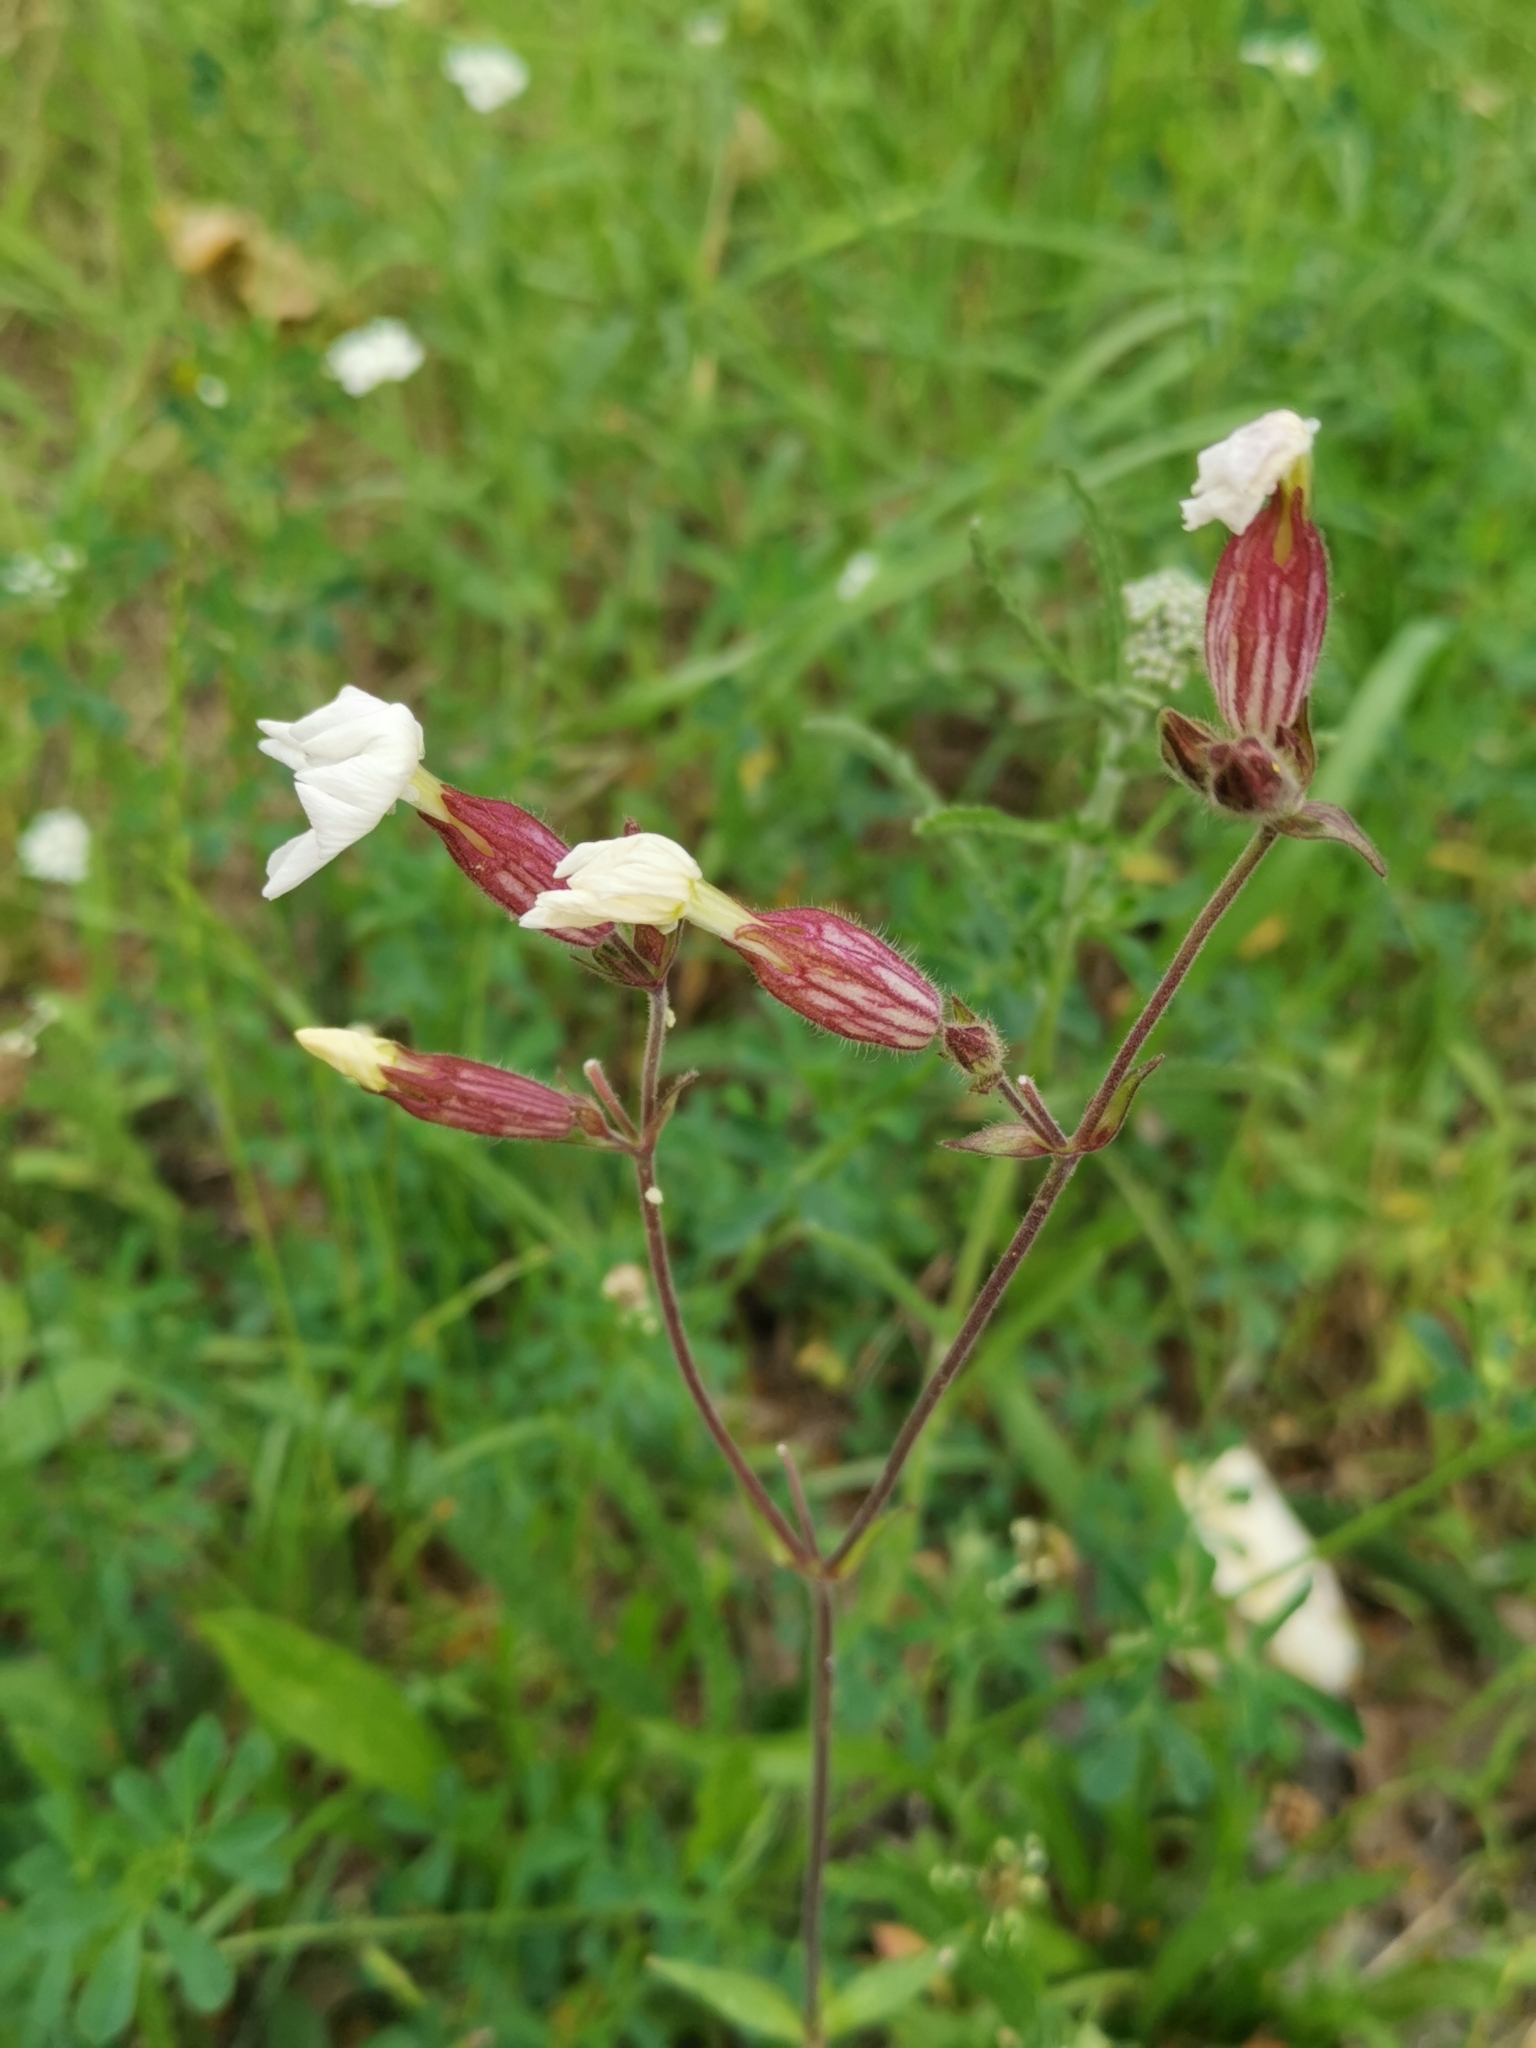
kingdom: Plantae
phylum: Tracheophyta
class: Magnoliopsida
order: Caryophyllales
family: Caryophyllaceae
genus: Silene
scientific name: Silene latifolia
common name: White campion
